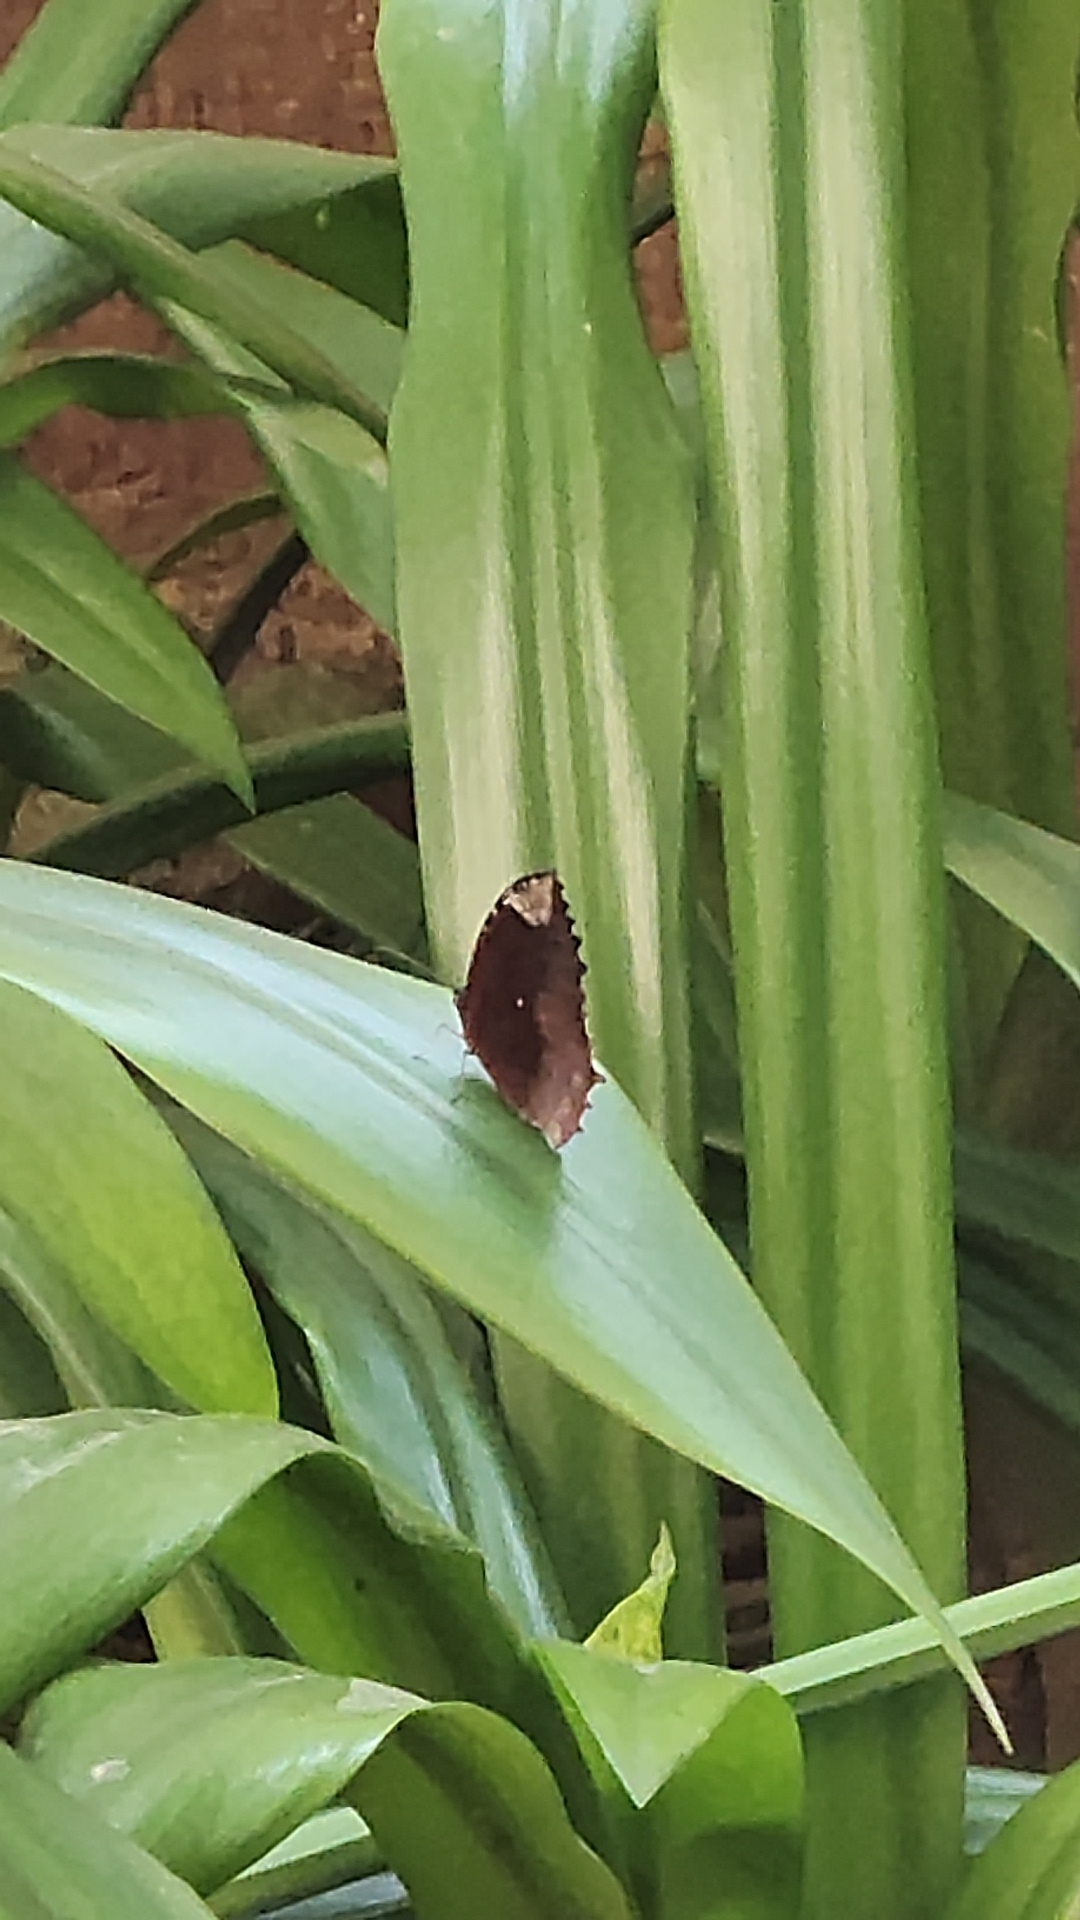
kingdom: Animalia
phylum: Arthropoda
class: Insecta
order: Lepidoptera
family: Nymphalidae
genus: Elymnias
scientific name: Elymnias hypermnestra
